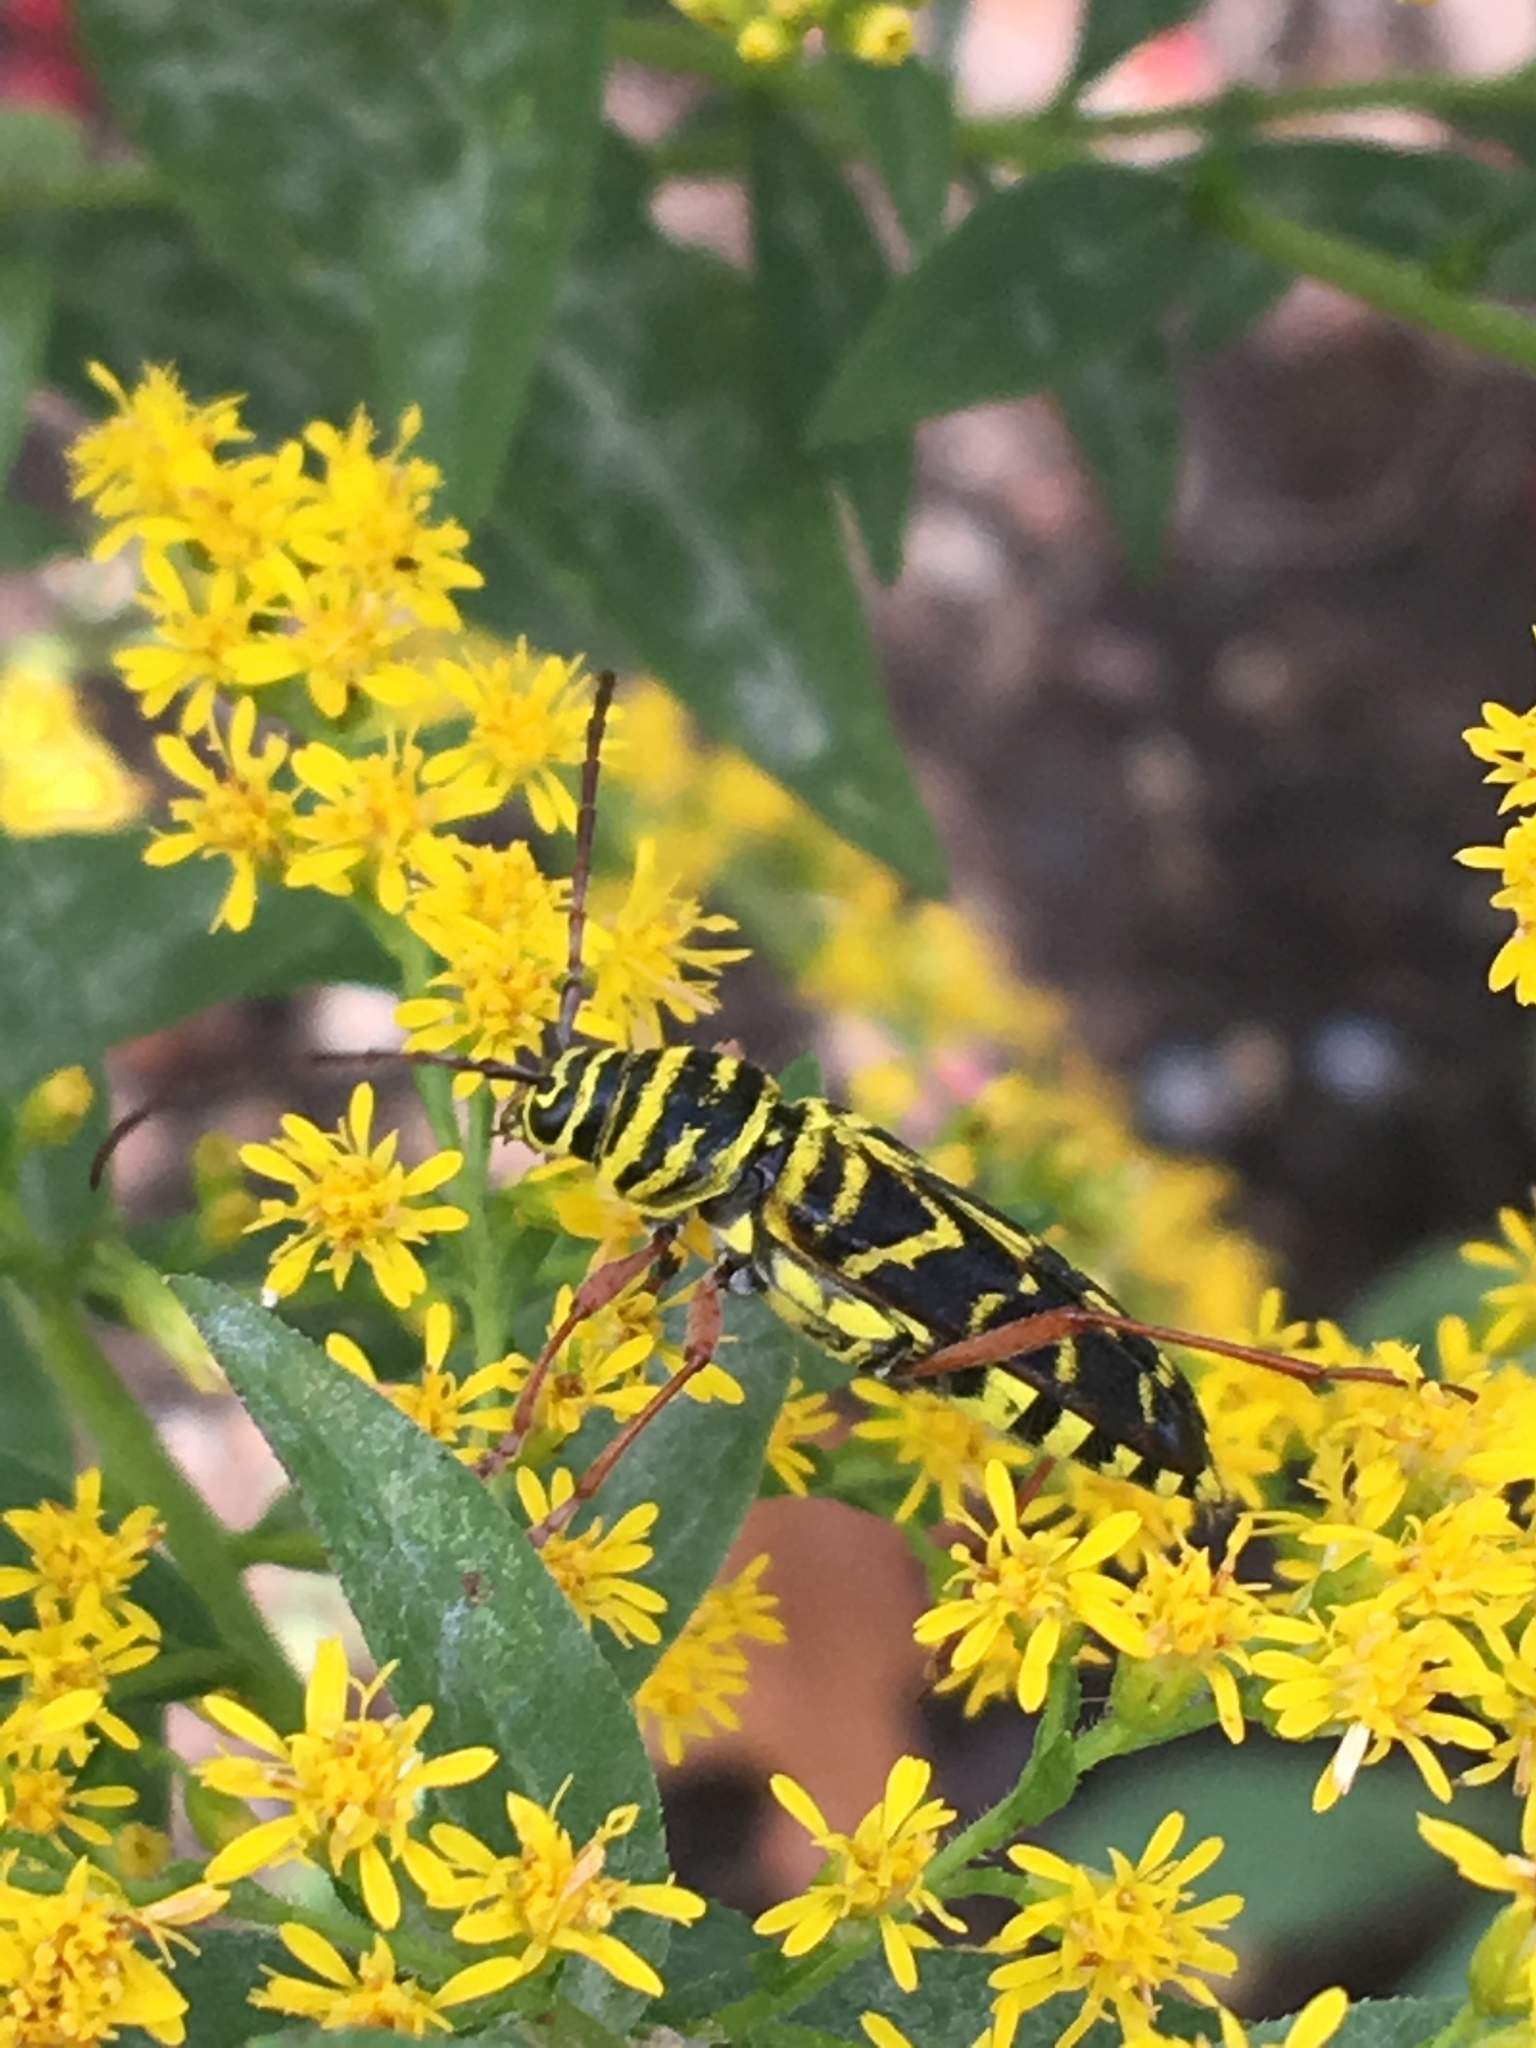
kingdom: Animalia
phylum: Arthropoda
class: Insecta
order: Coleoptera
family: Cerambycidae
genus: Megacyllene
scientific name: Megacyllene robiniae
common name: Locust borer
